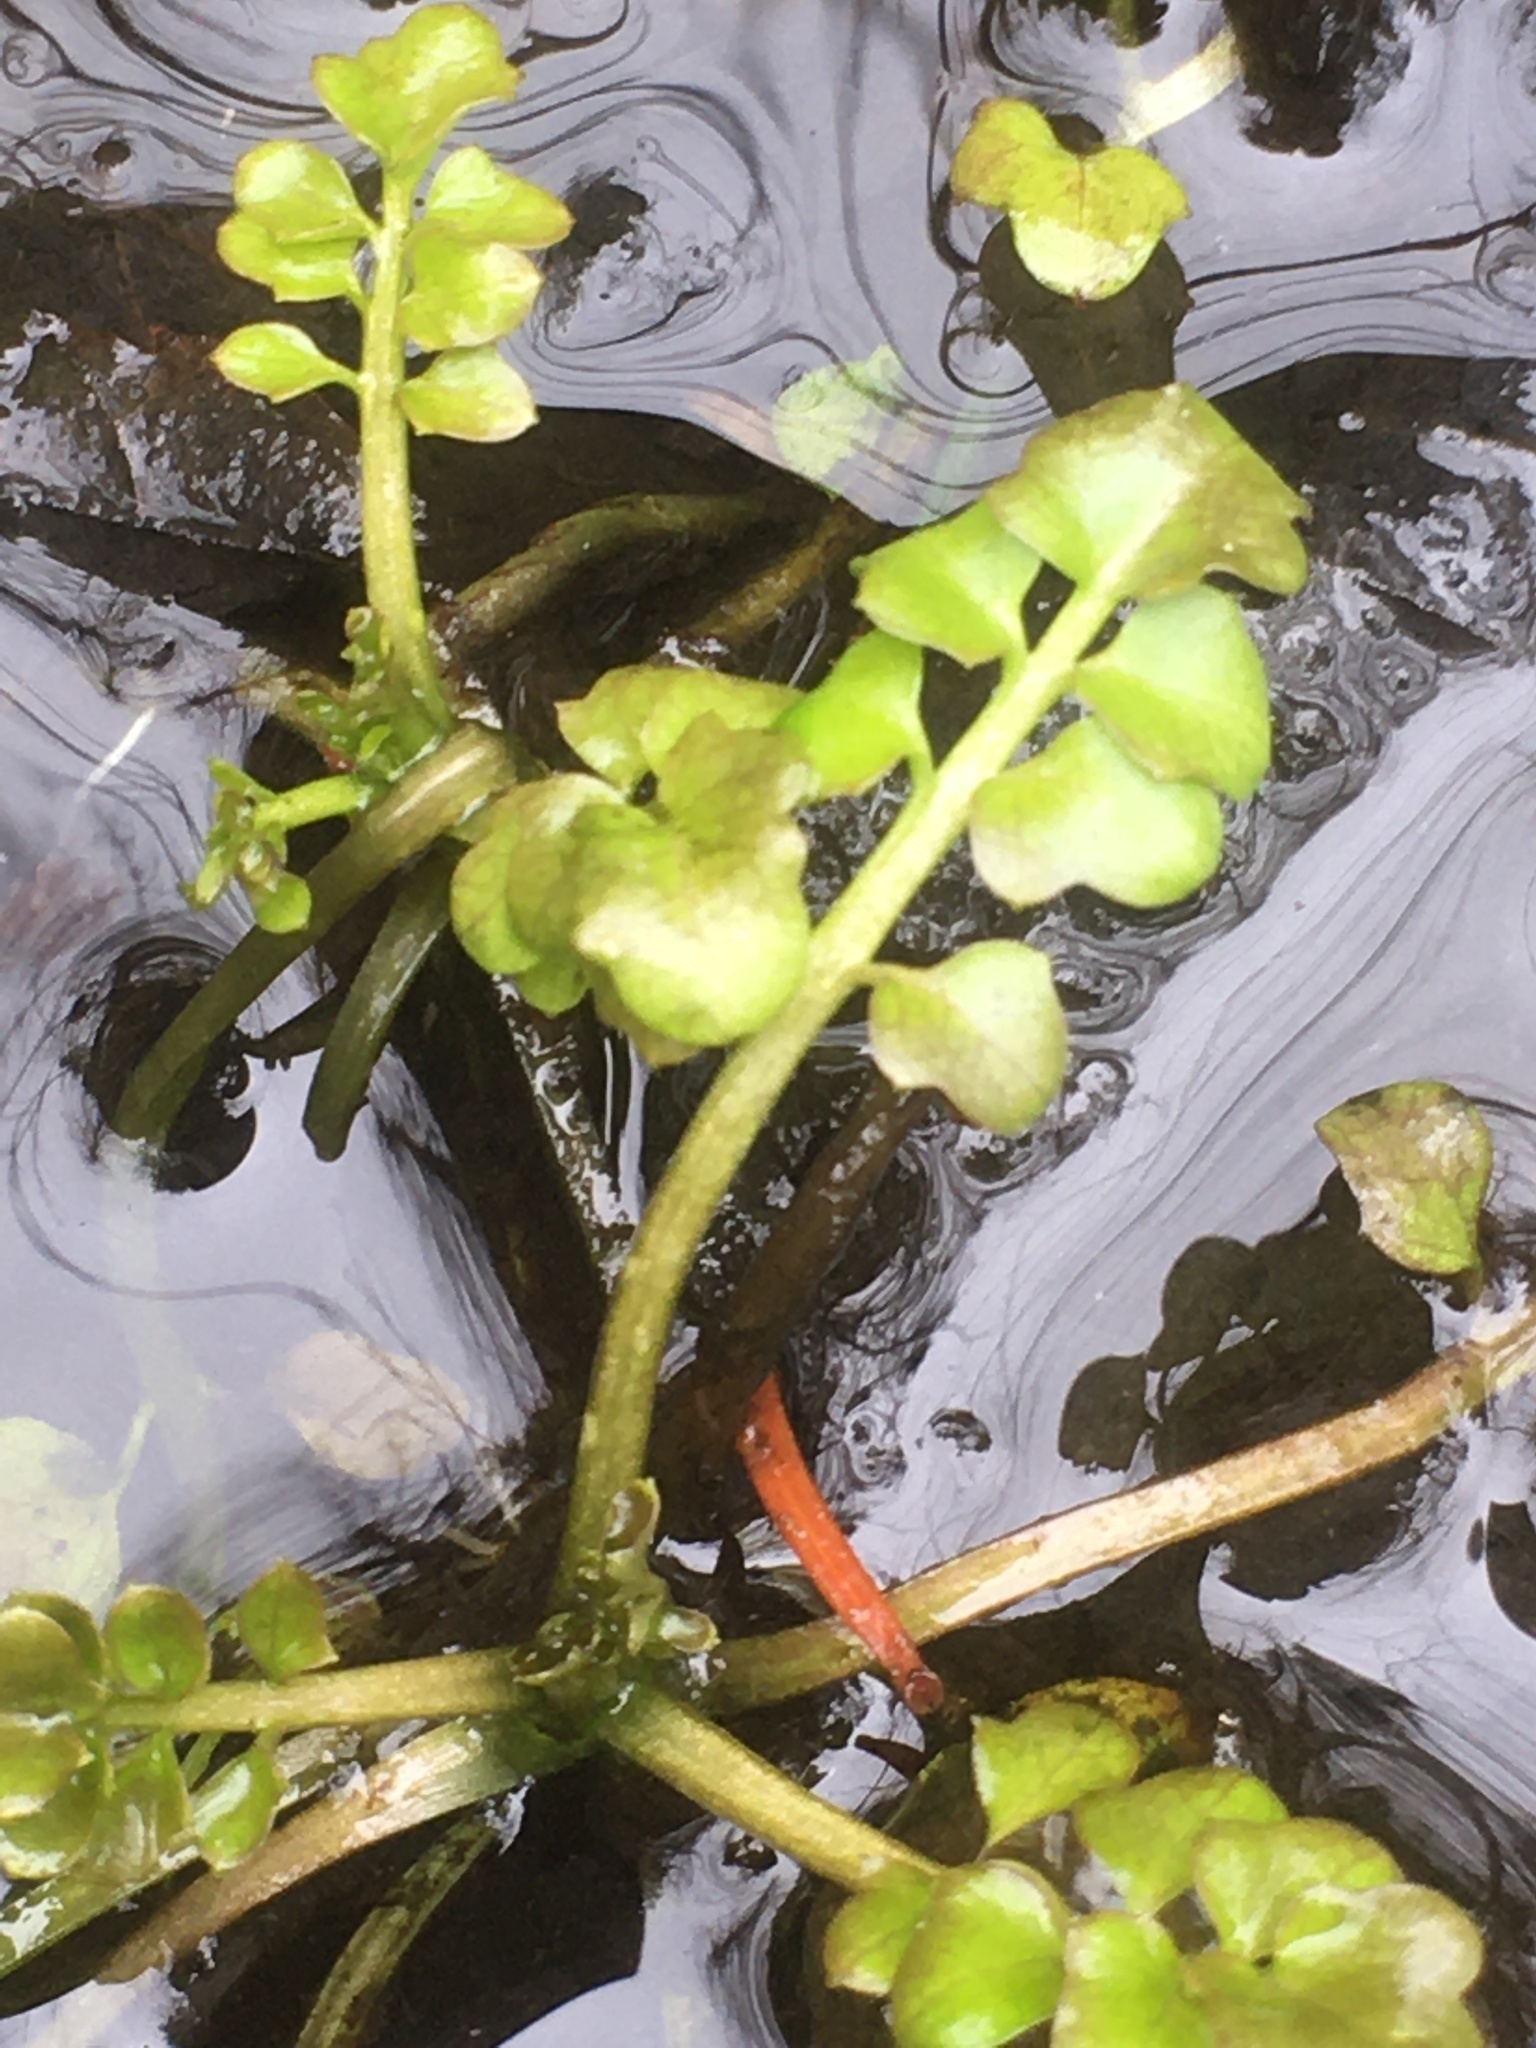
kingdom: Plantae
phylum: Tracheophyta
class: Magnoliopsida
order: Brassicales
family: Brassicaceae
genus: Cardamine
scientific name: Cardamine pensylvanica
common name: Pennsylvania bittercress
